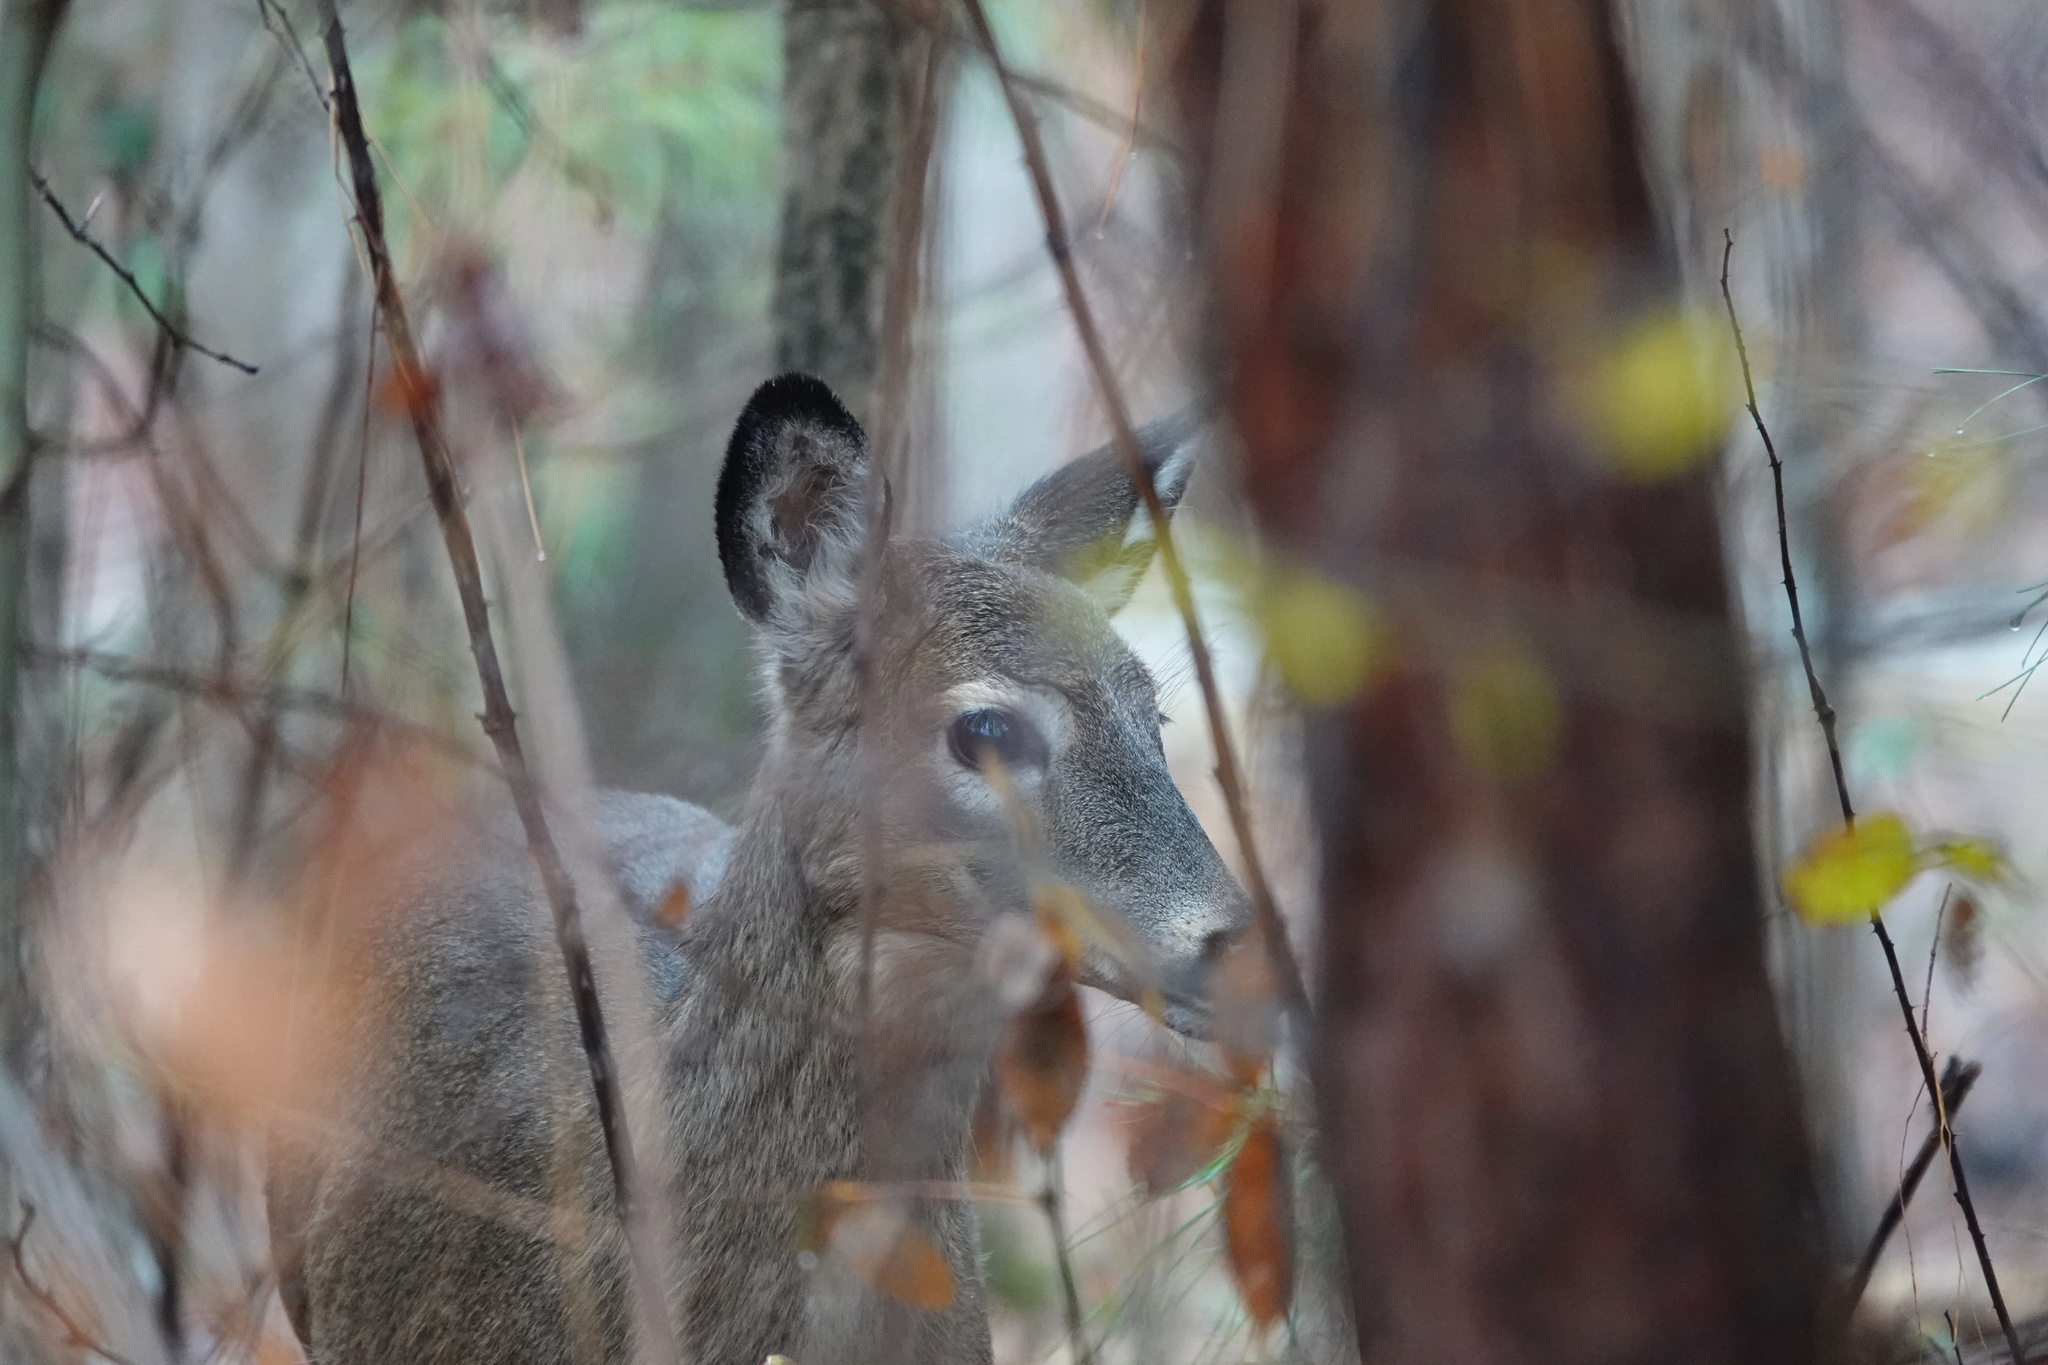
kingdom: Animalia
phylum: Chordata
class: Mammalia
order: Artiodactyla
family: Cervidae
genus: Odocoileus
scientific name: Odocoileus virginianus
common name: White-tailed deer
